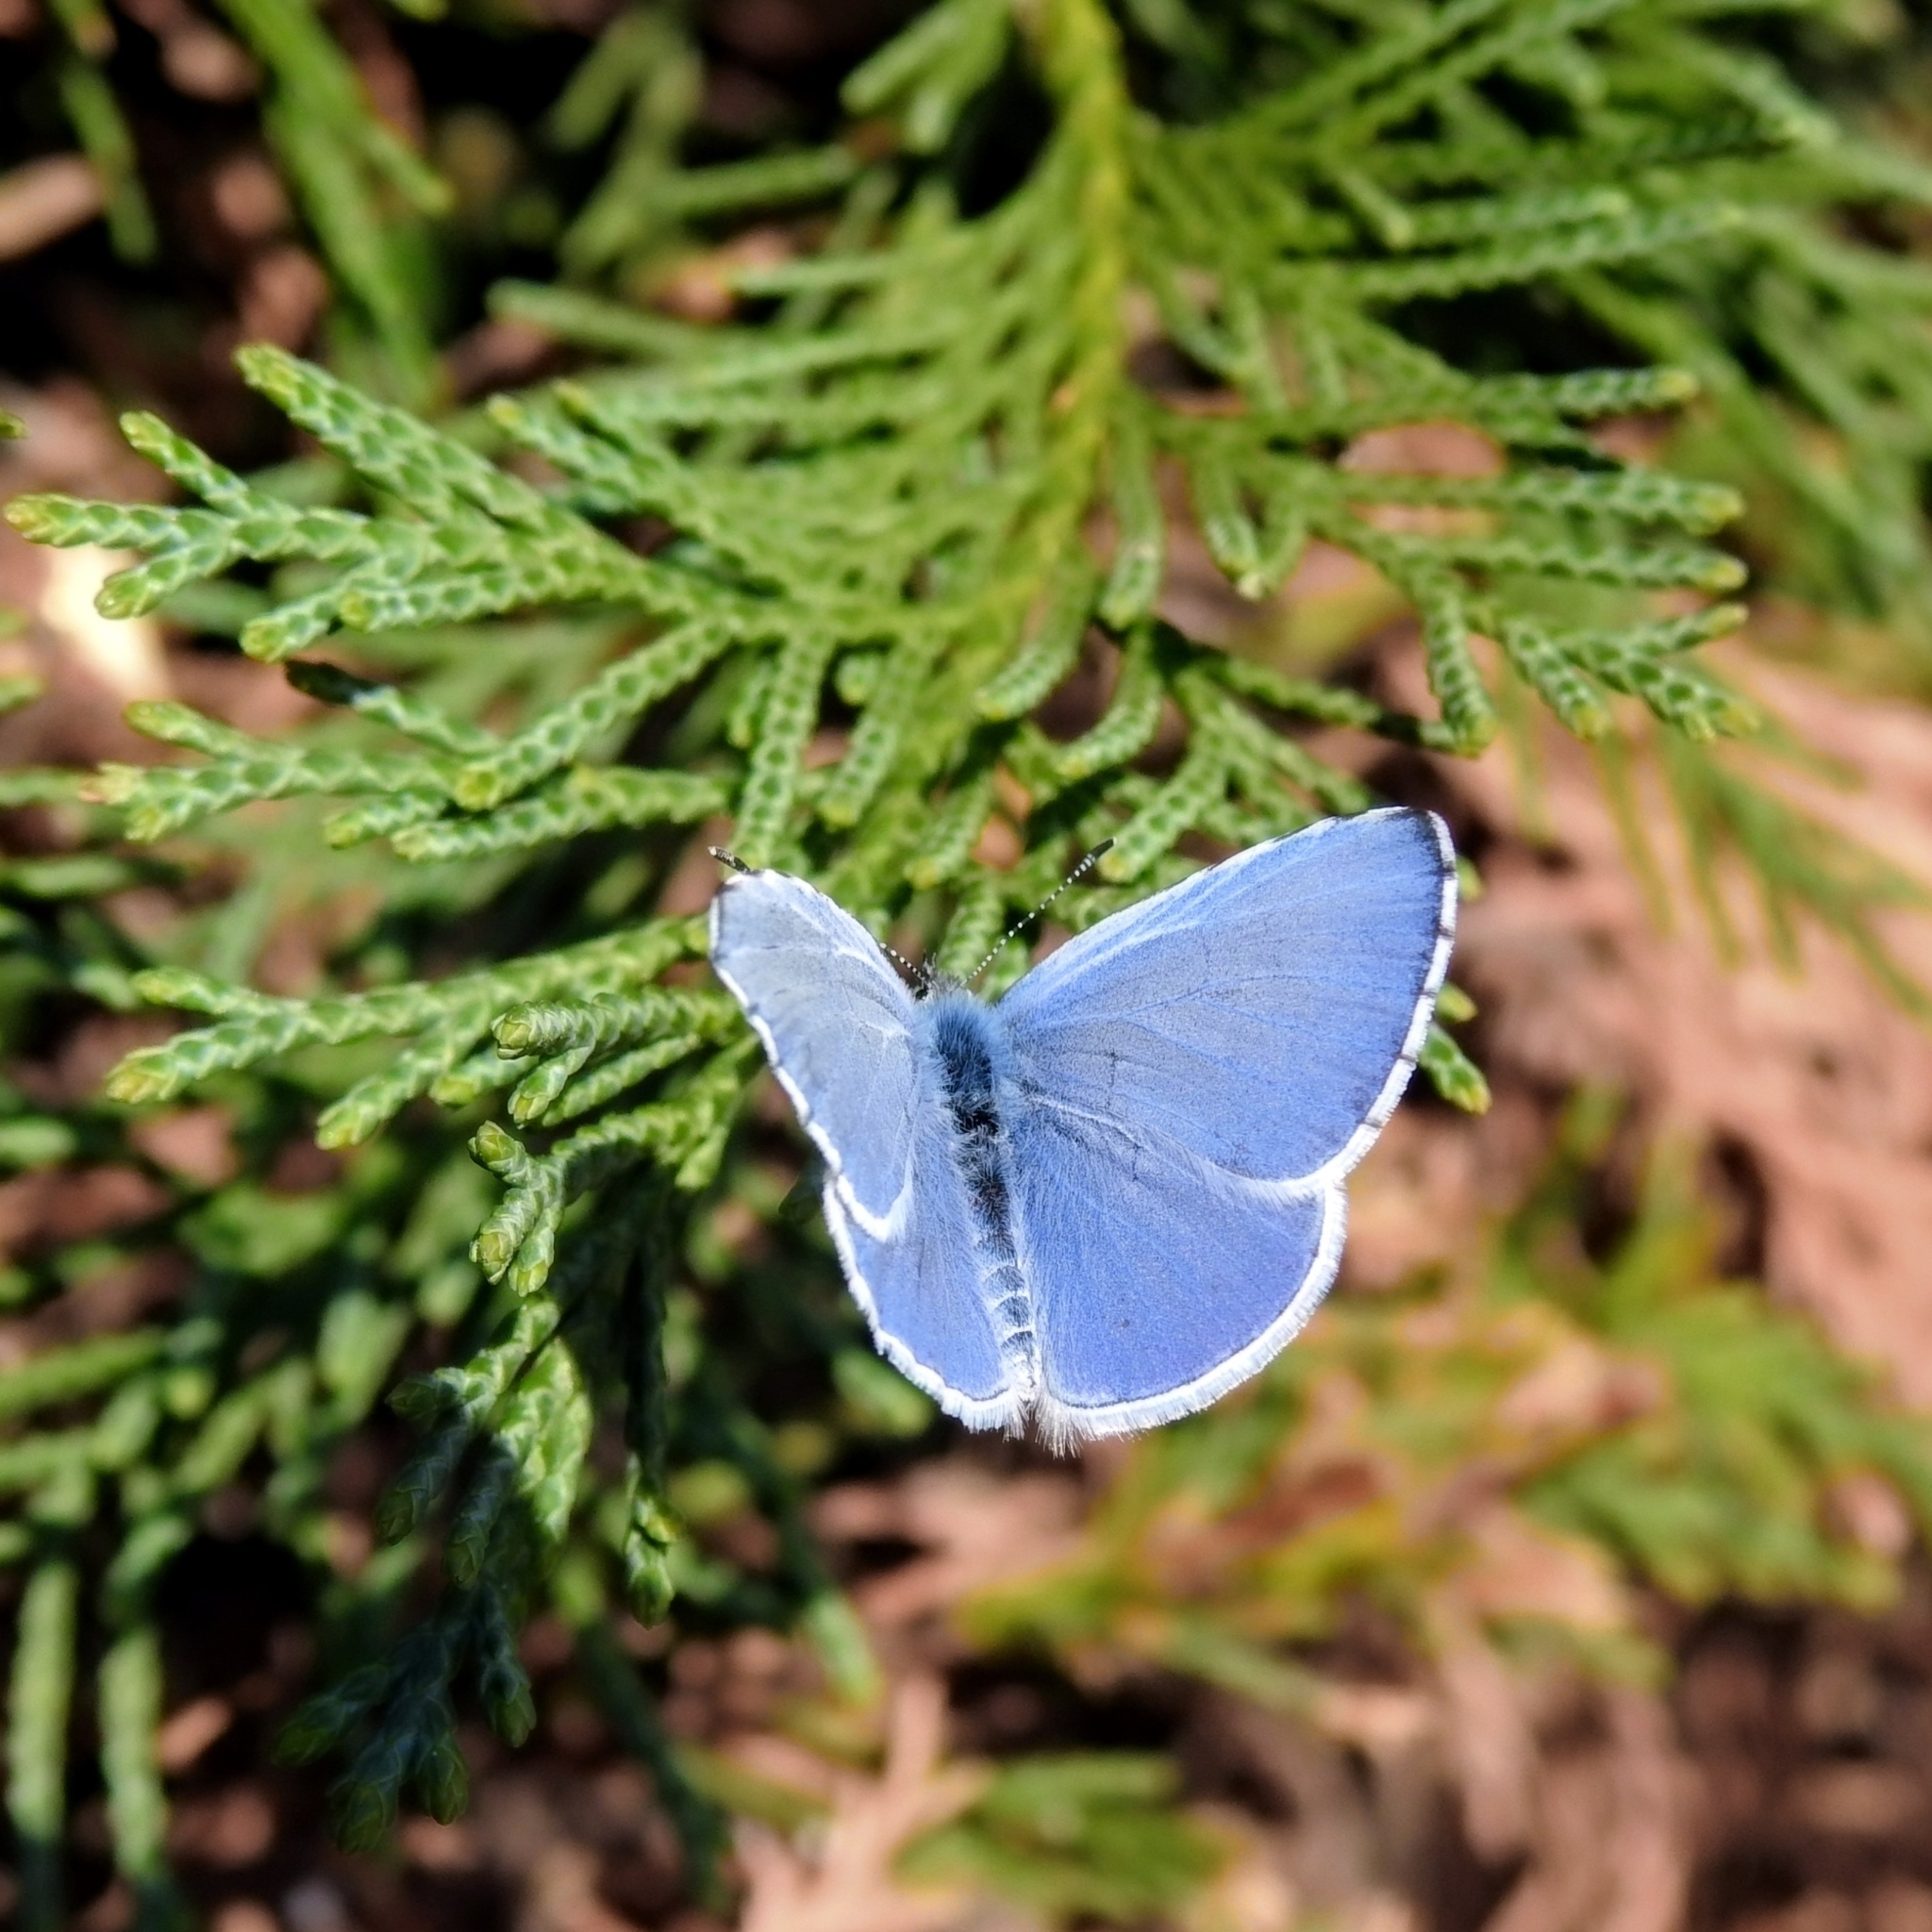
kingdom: Animalia
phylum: Arthropoda
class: Insecta
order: Lepidoptera
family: Lycaenidae
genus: Celastrina
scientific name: Celastrina argiolus
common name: Holly blue
